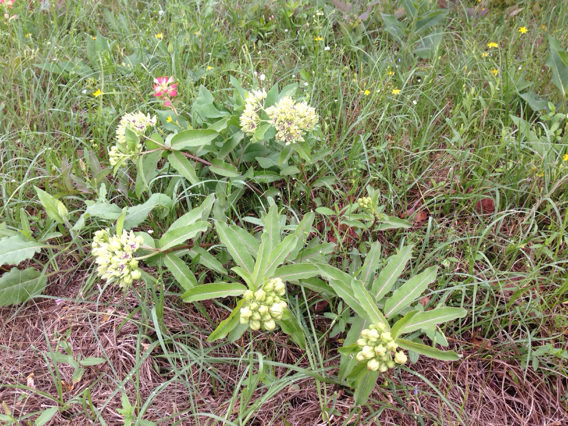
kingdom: Plantae
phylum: Tracheophyta
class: Magnoliopsida
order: Gentianales
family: Apocynaceae
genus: Asclepias
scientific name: Asclepias viridis
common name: Antelope-horns
